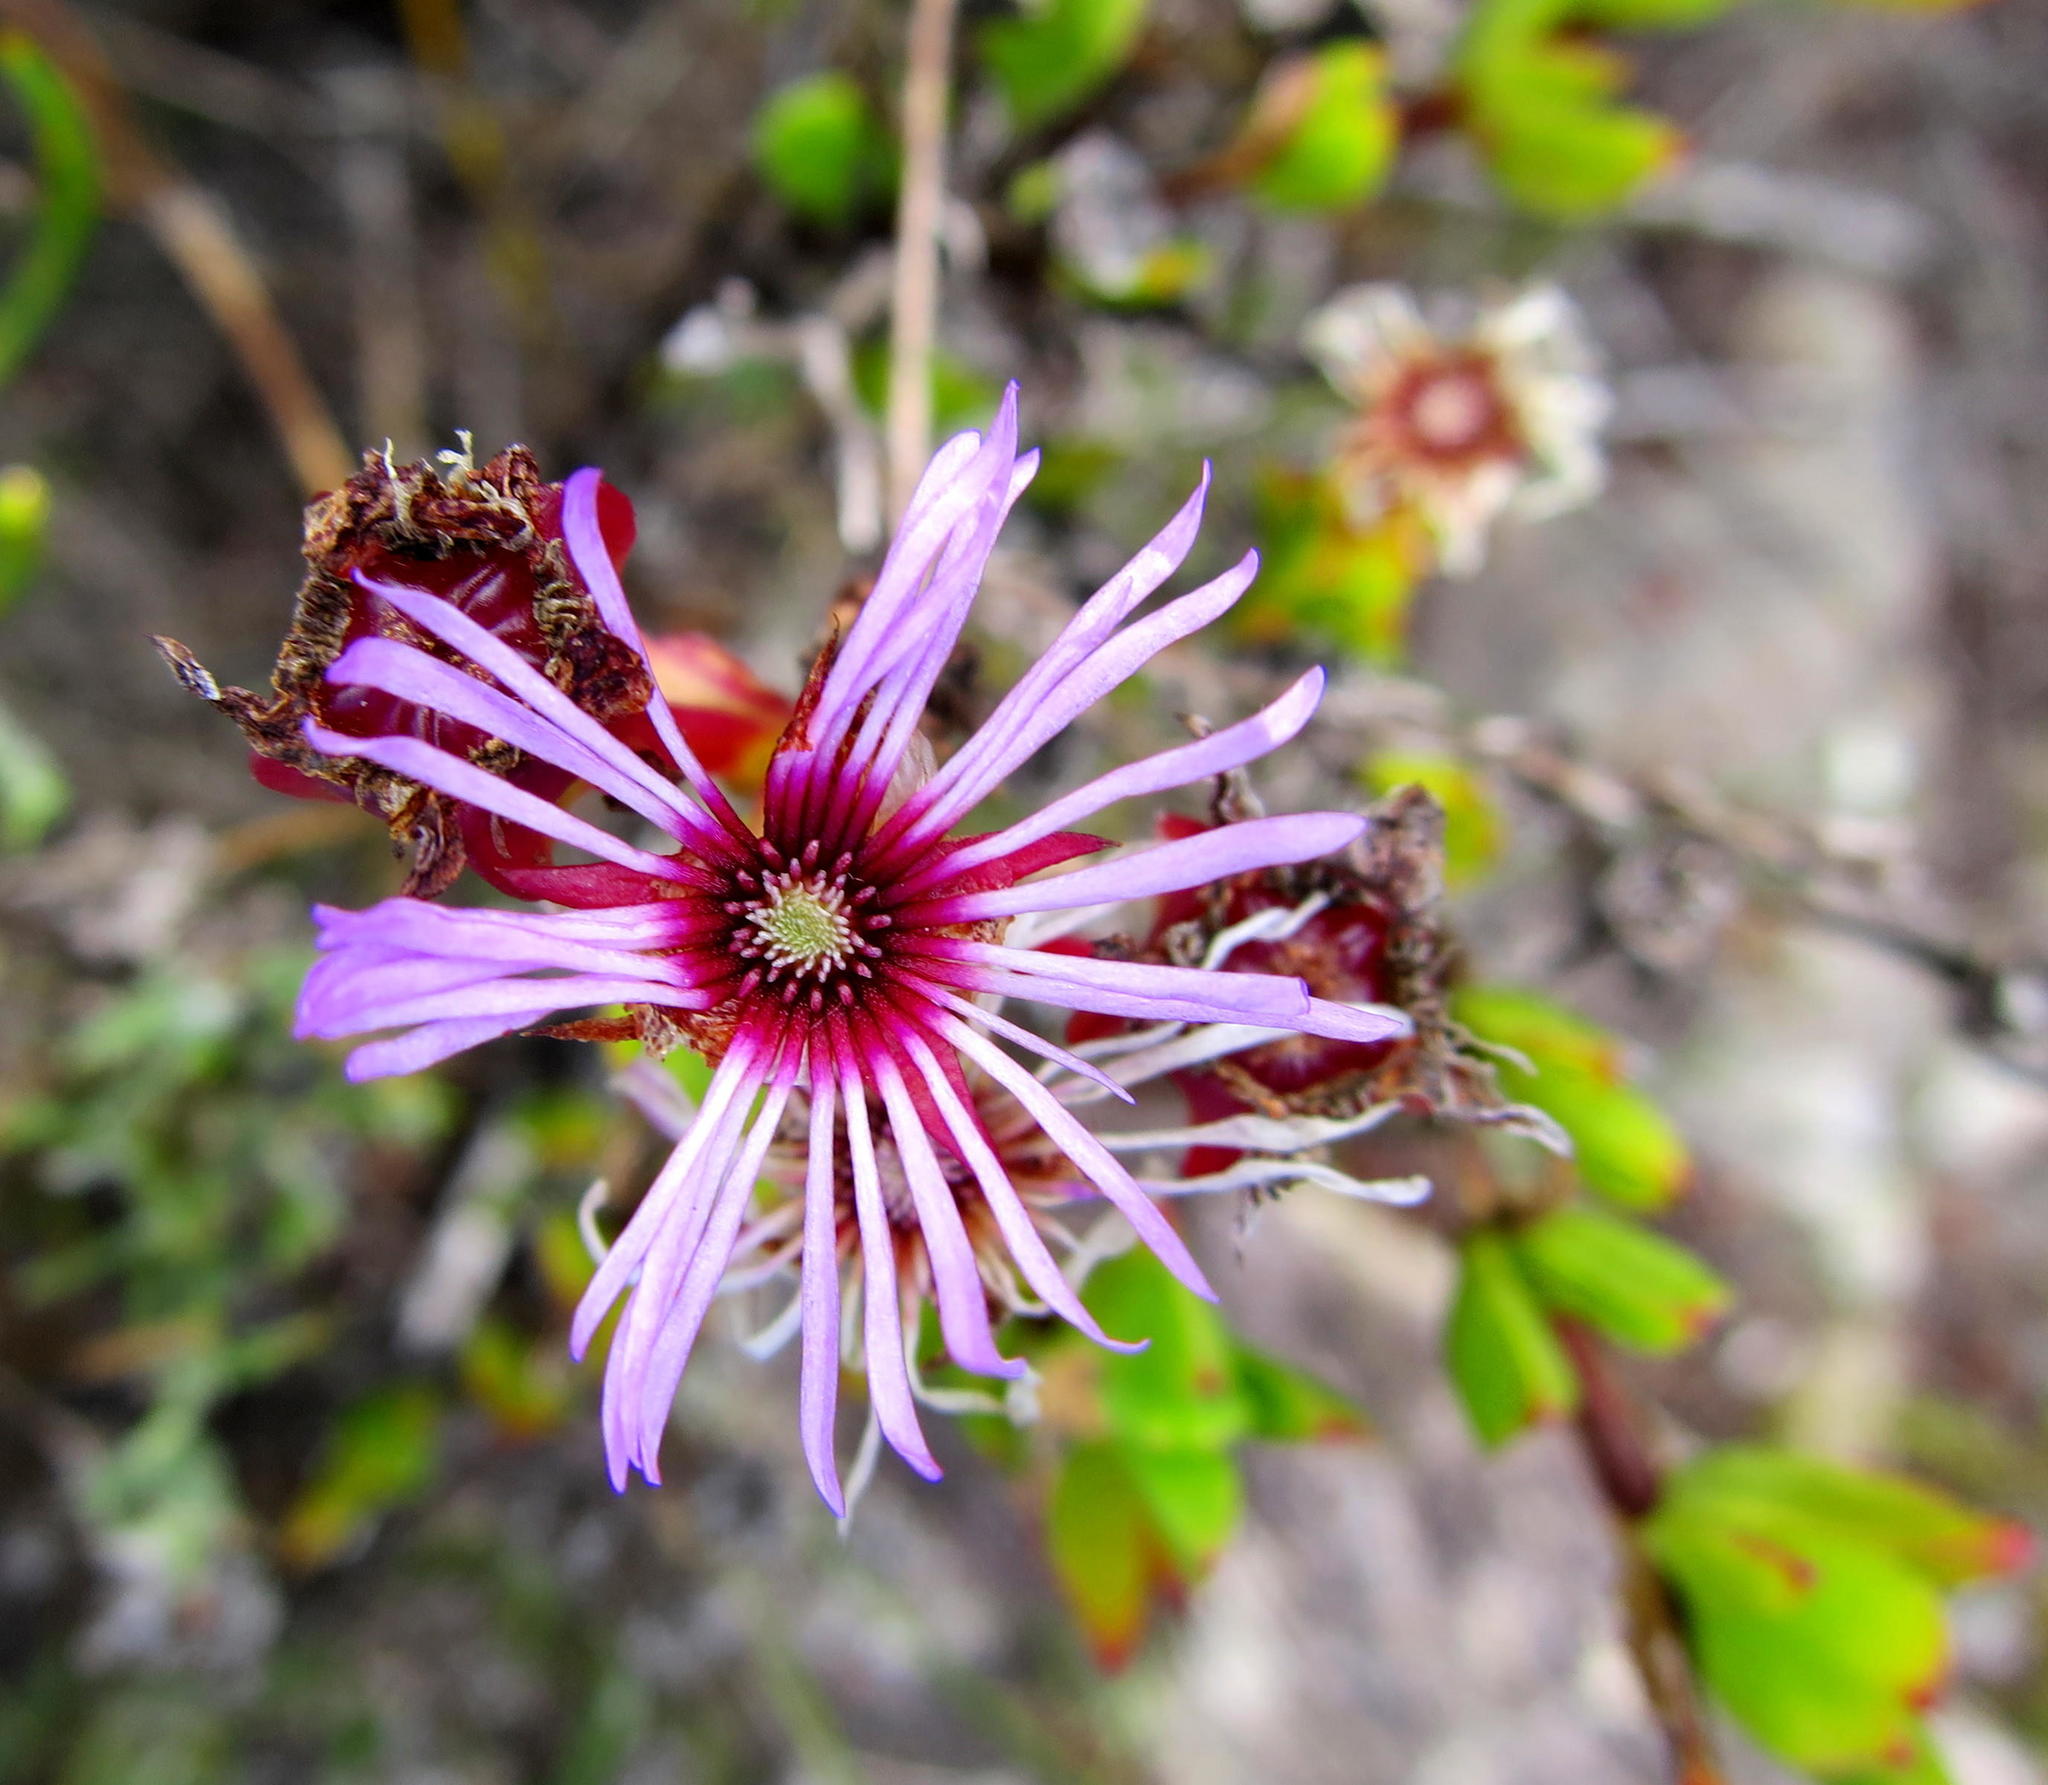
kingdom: Plantae
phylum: Tracheophyta
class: Magnoliopsida
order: Caryophyllales
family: Aizoaceae
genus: Erepsia
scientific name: Erepsia pentagona
